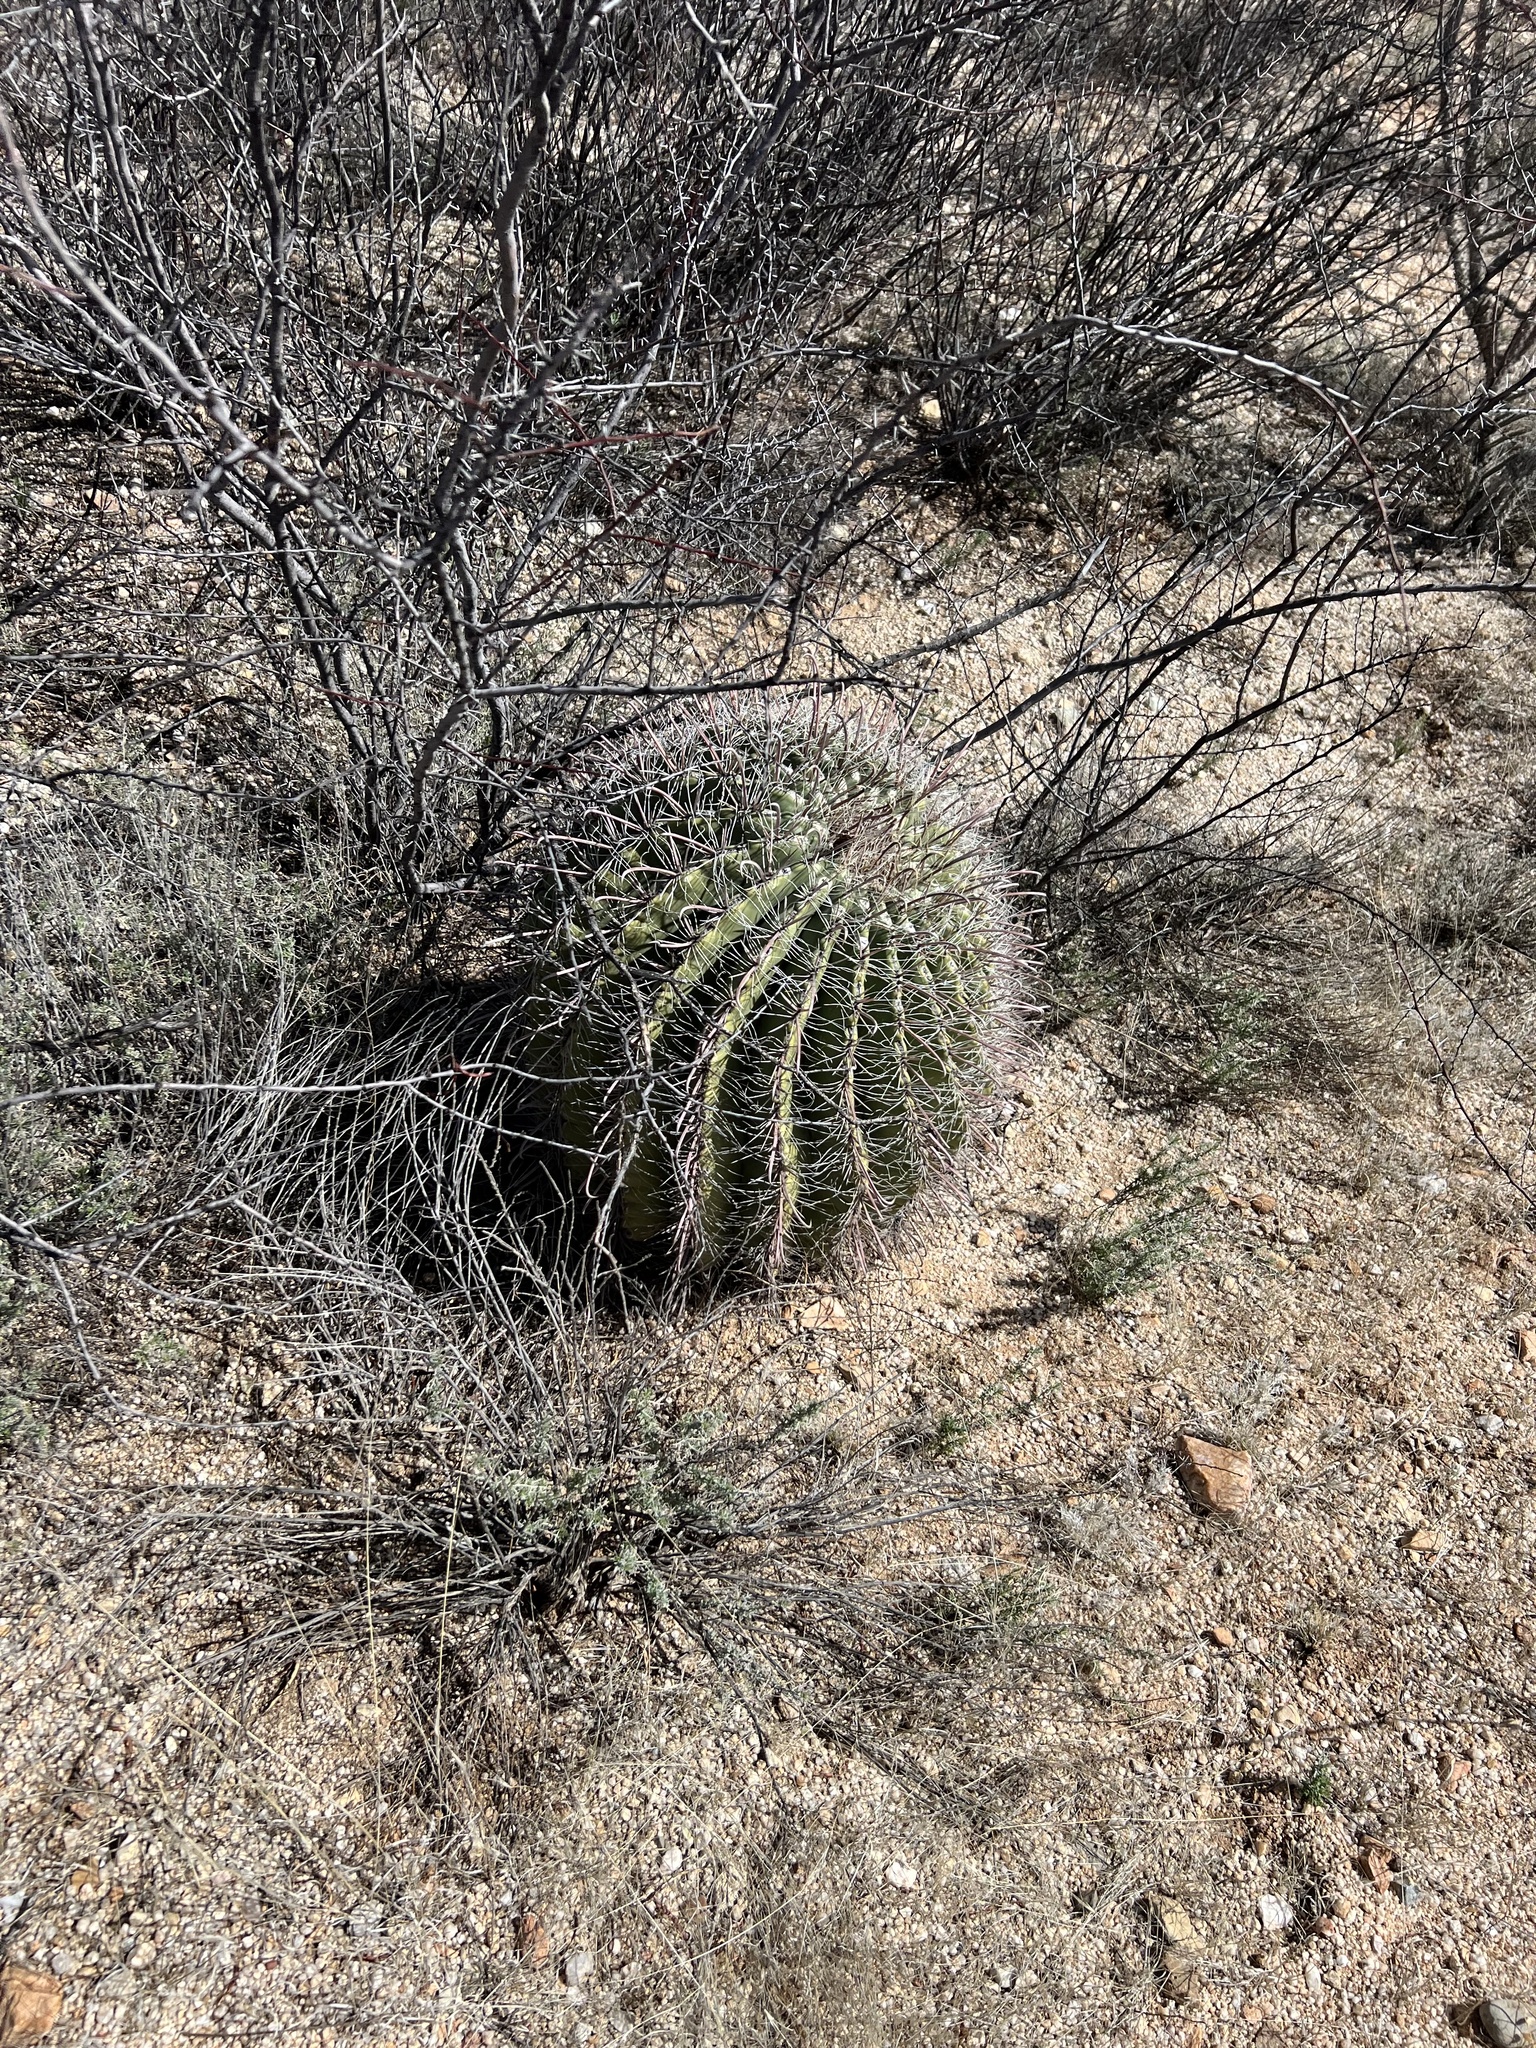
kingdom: Plantae
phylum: Tracheophyta
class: Magnoliopsida
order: Caryophyllales
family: Cactaceae
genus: Ferocactus
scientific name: Ferocactus wislizeni
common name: Candy barrel cactus
